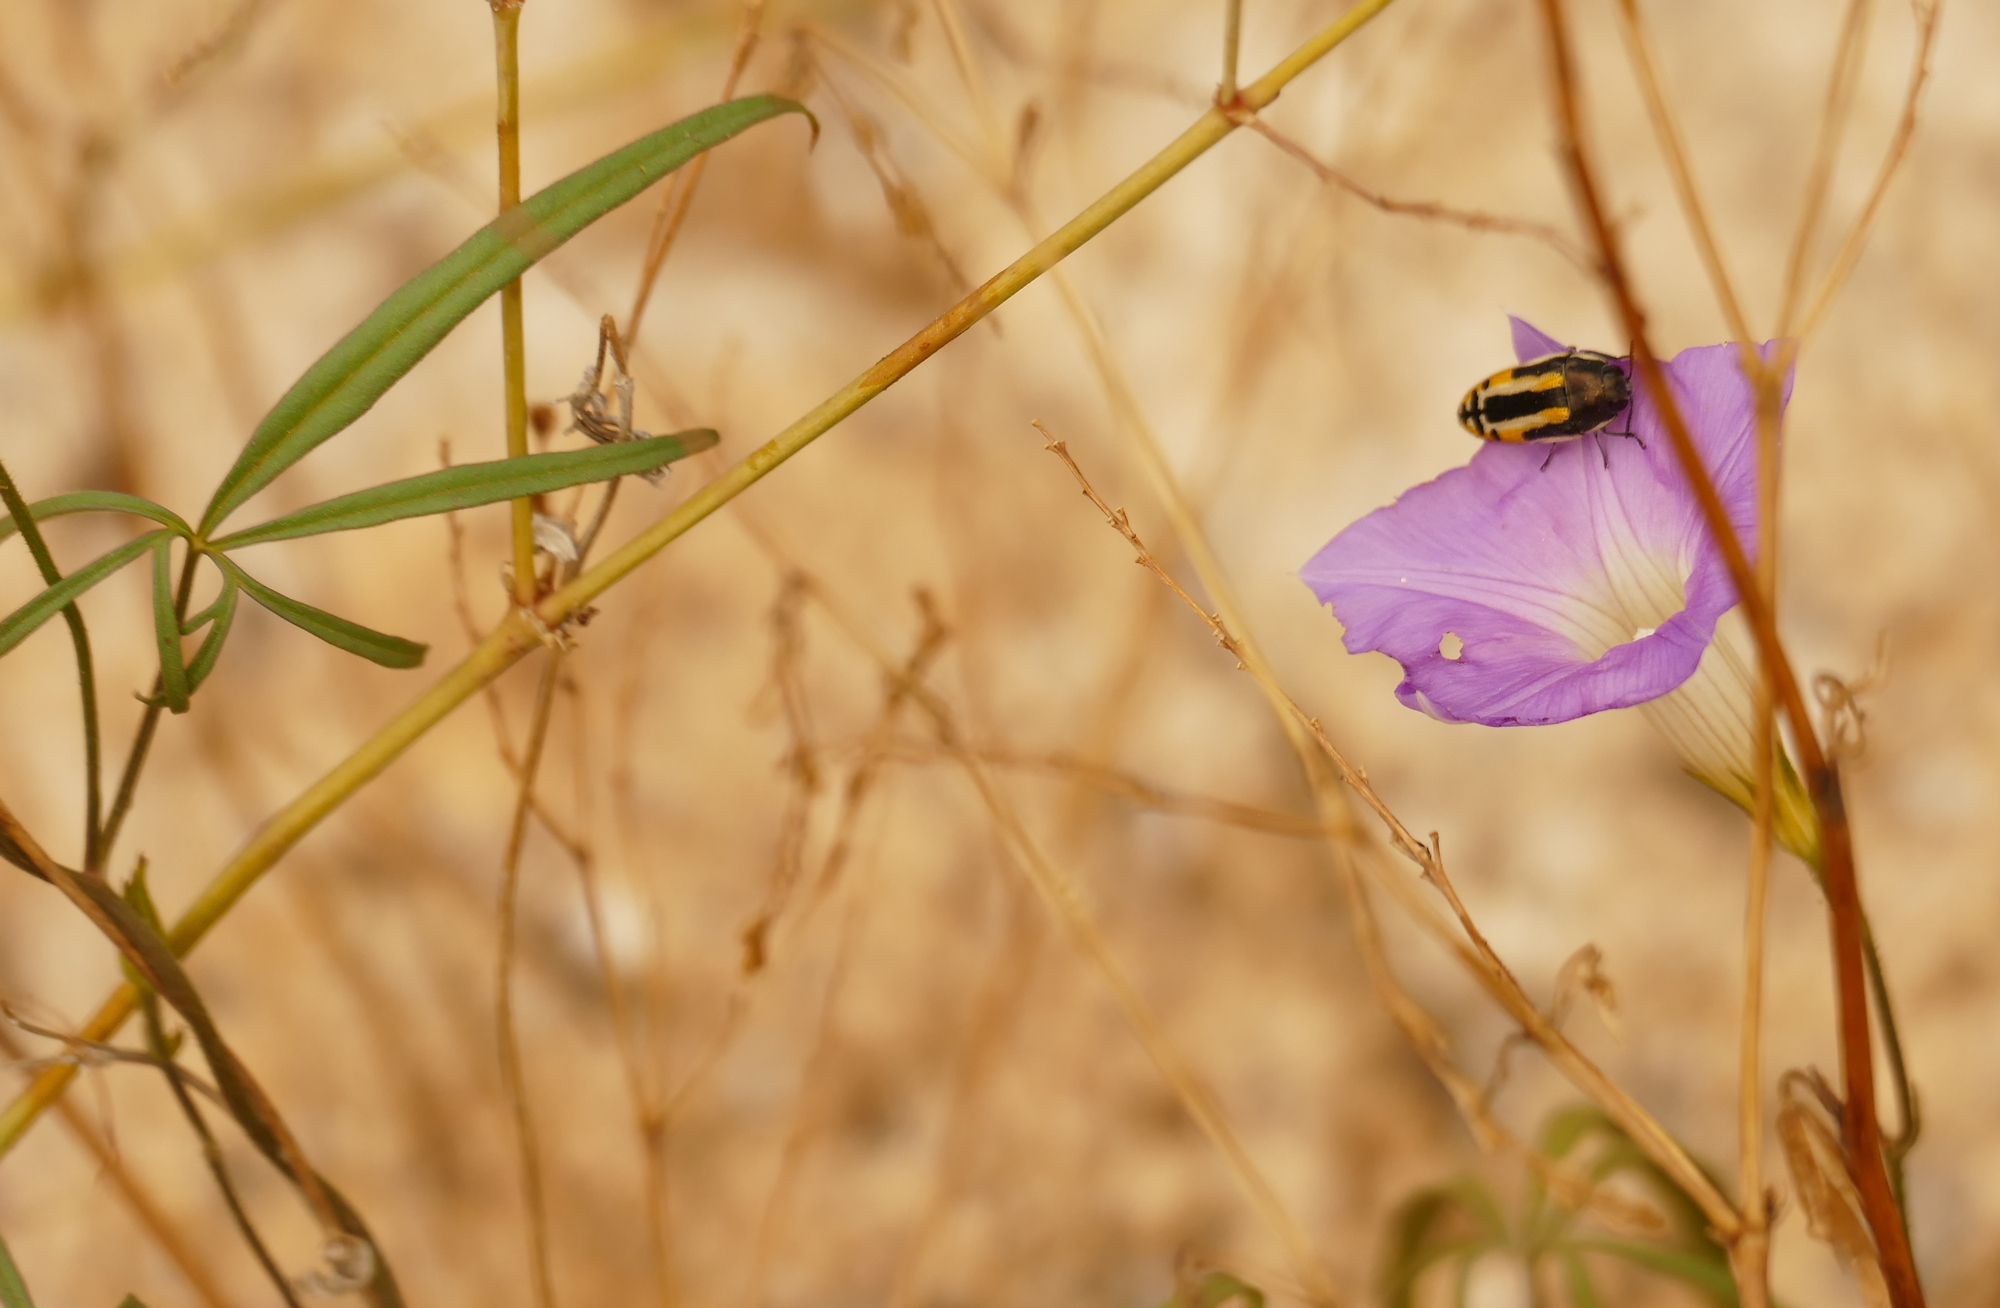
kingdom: Plantae
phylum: Tracheophyta
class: Magnoliopsida
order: Solanales
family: Convolvulaceae
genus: Ipomoea
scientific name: Ipomoea ternifolia
